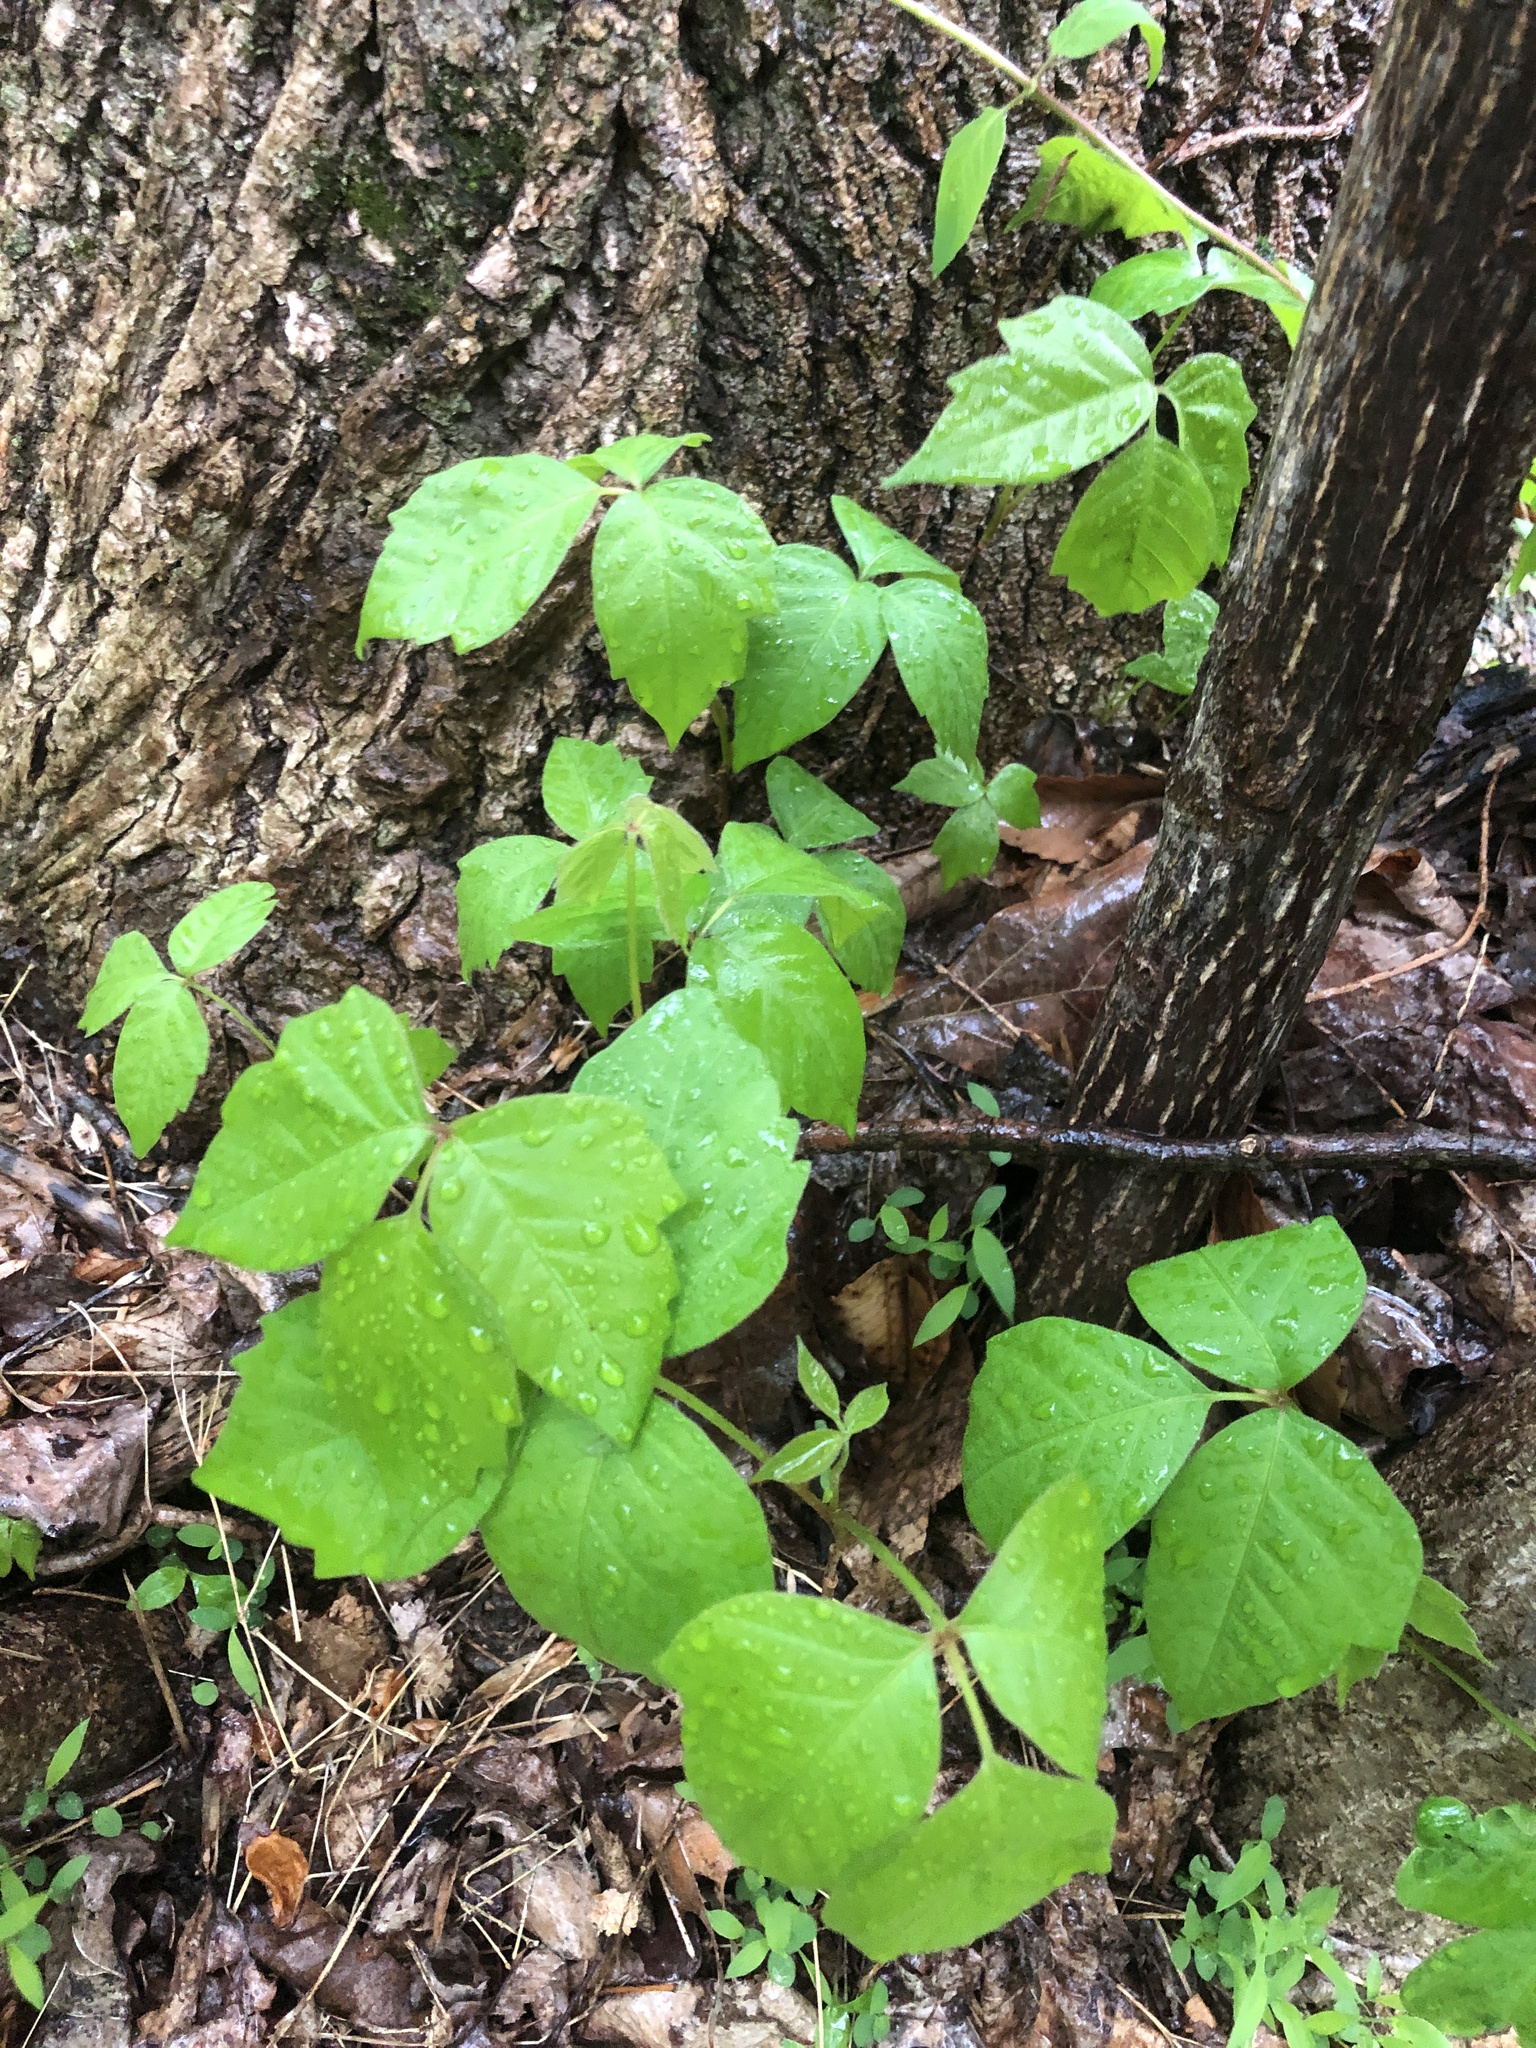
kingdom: Plantae
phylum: Tracheophyta
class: Magnoliopsida
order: Sapindales
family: Anacardiaceae
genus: Toxicodendron
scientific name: Toxicodendron radicans
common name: Poison ivy
